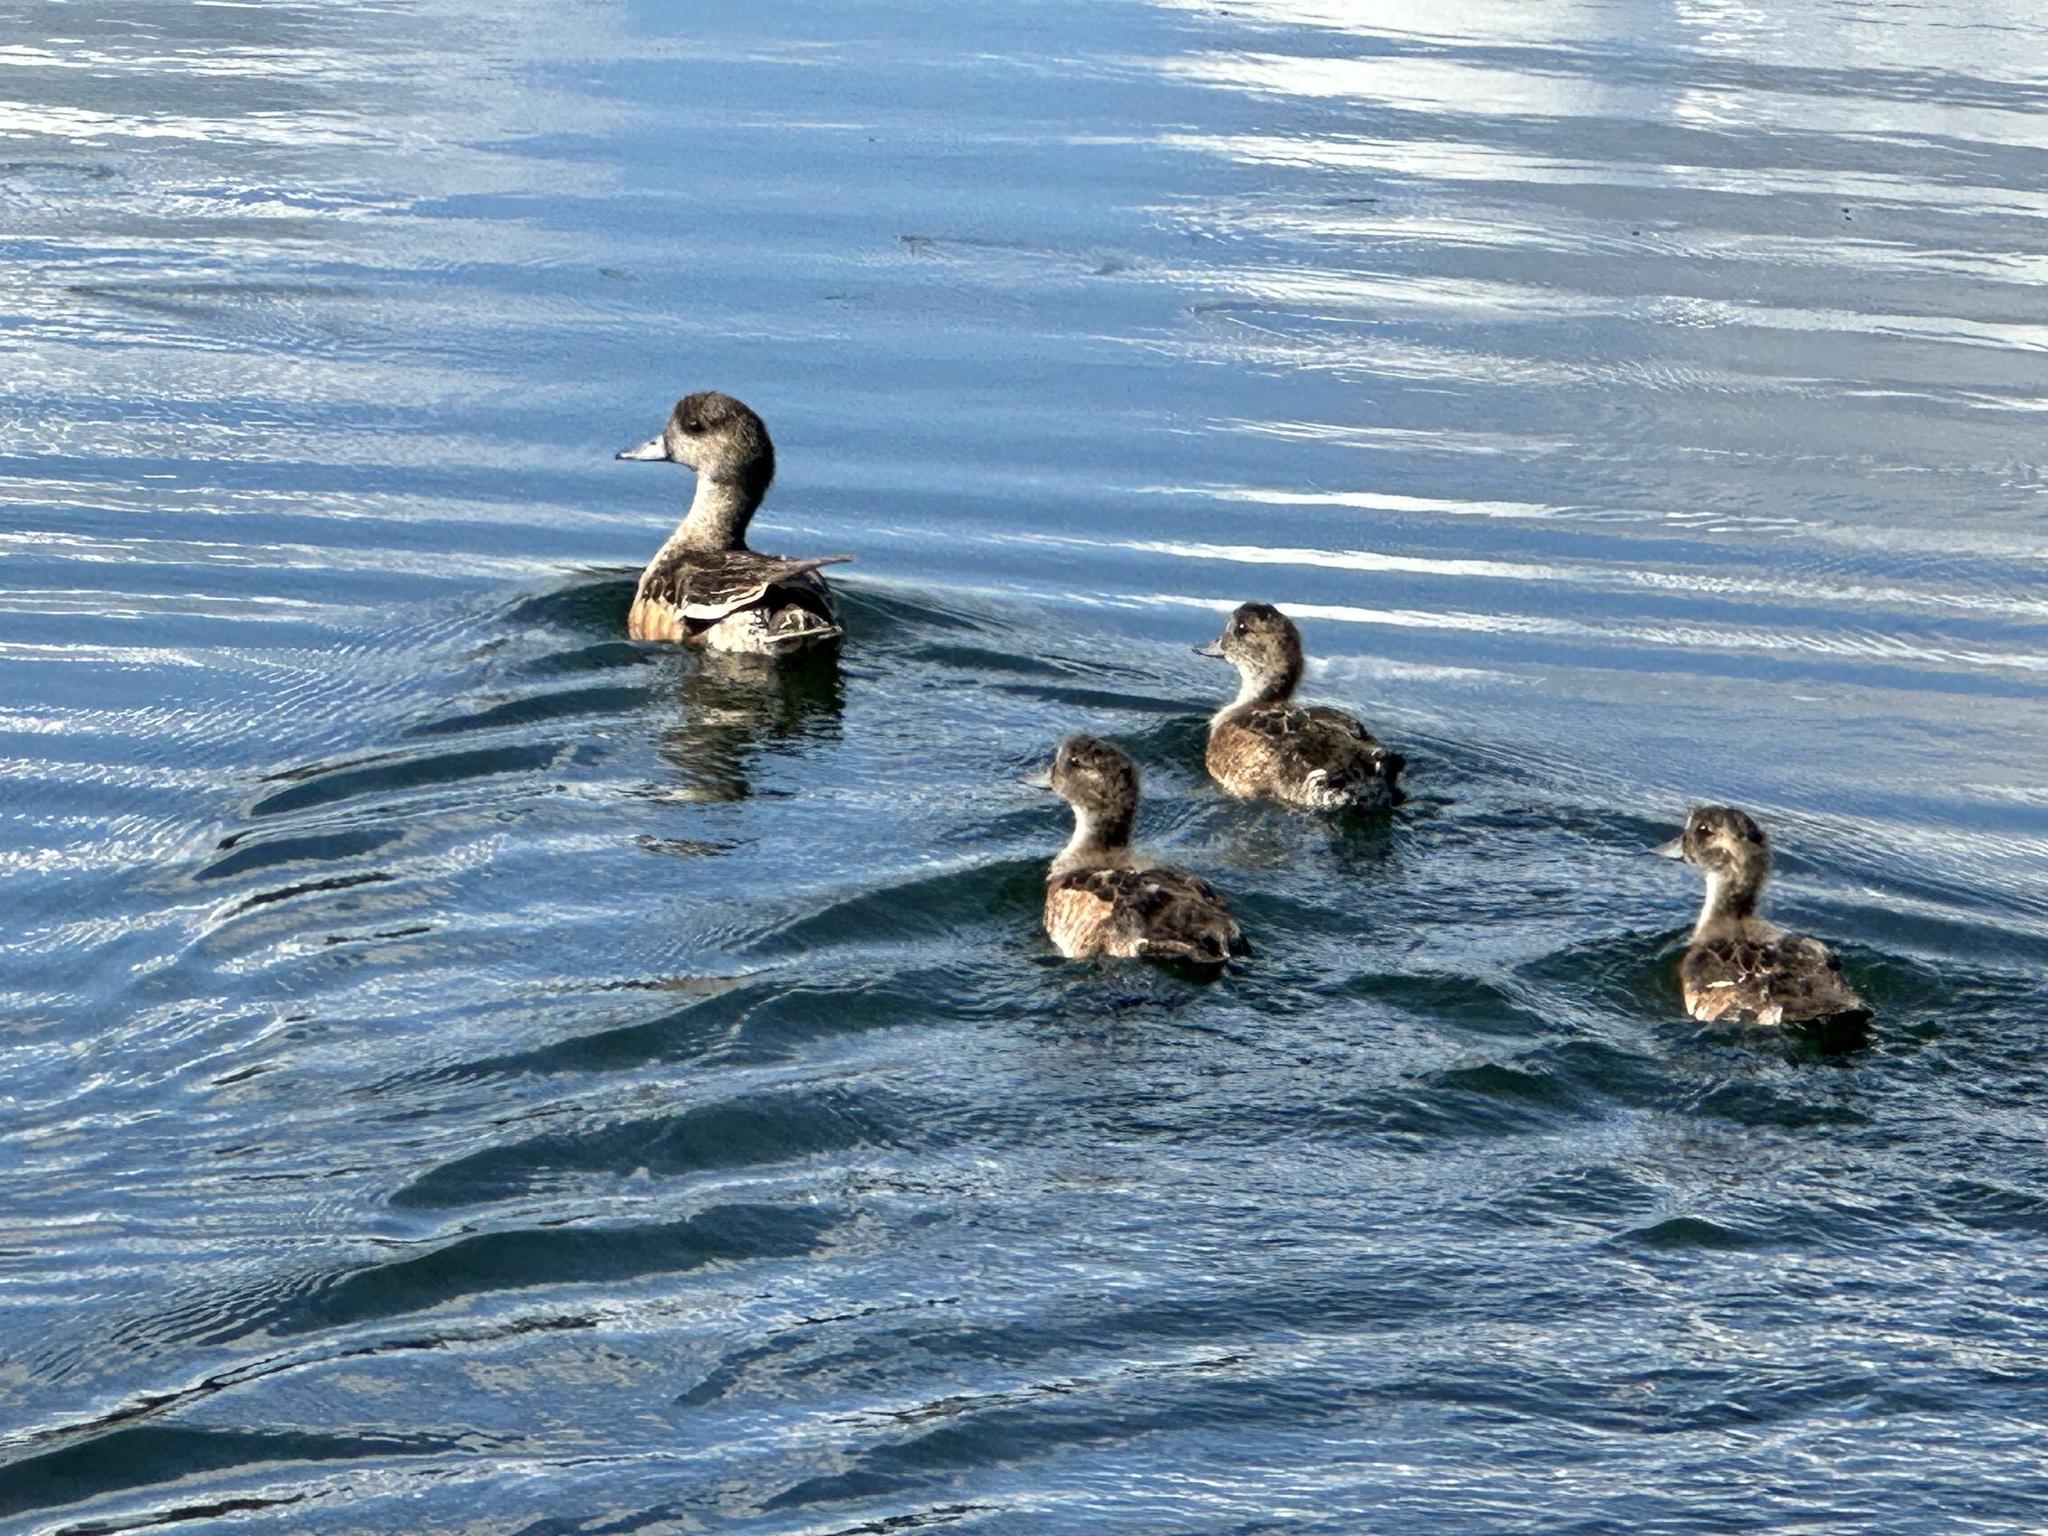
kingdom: Animalia
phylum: Chordata
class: Aves
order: Anseriformes
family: Anatidae
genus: Mareca
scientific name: Mareca americana
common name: American wigeon
